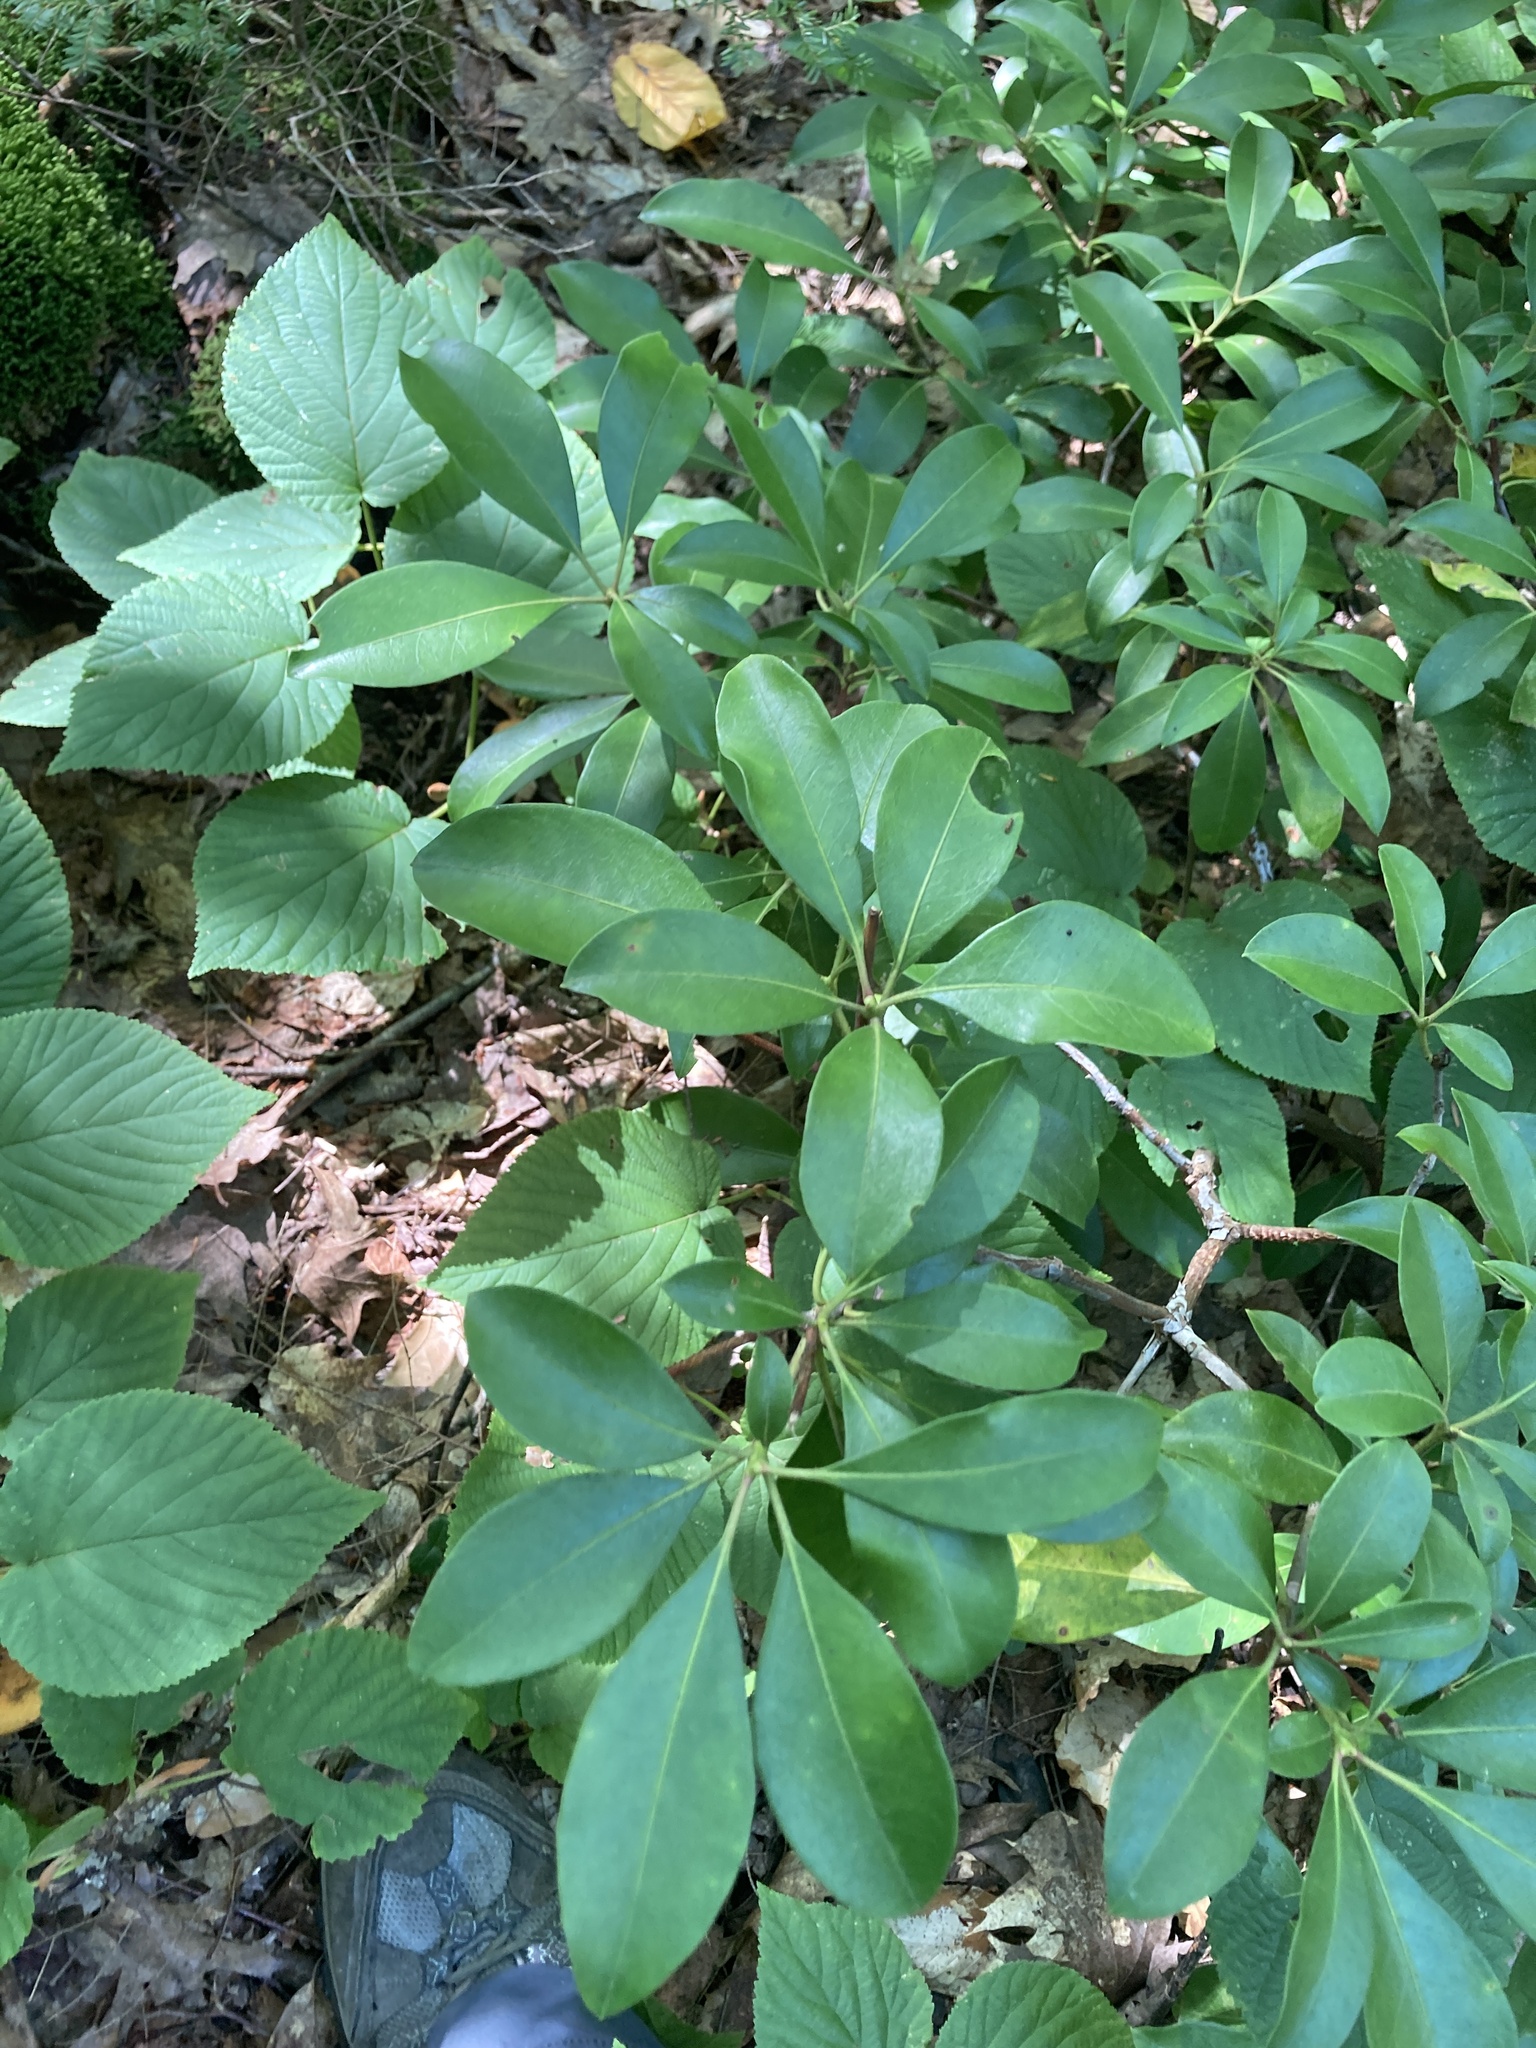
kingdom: Plantae
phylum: Tracheophyta
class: Magnoliopsida
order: Ericales
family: Ericaceae
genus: Kalmia
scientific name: Kalmia latifolia
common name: Mountain-laurel
